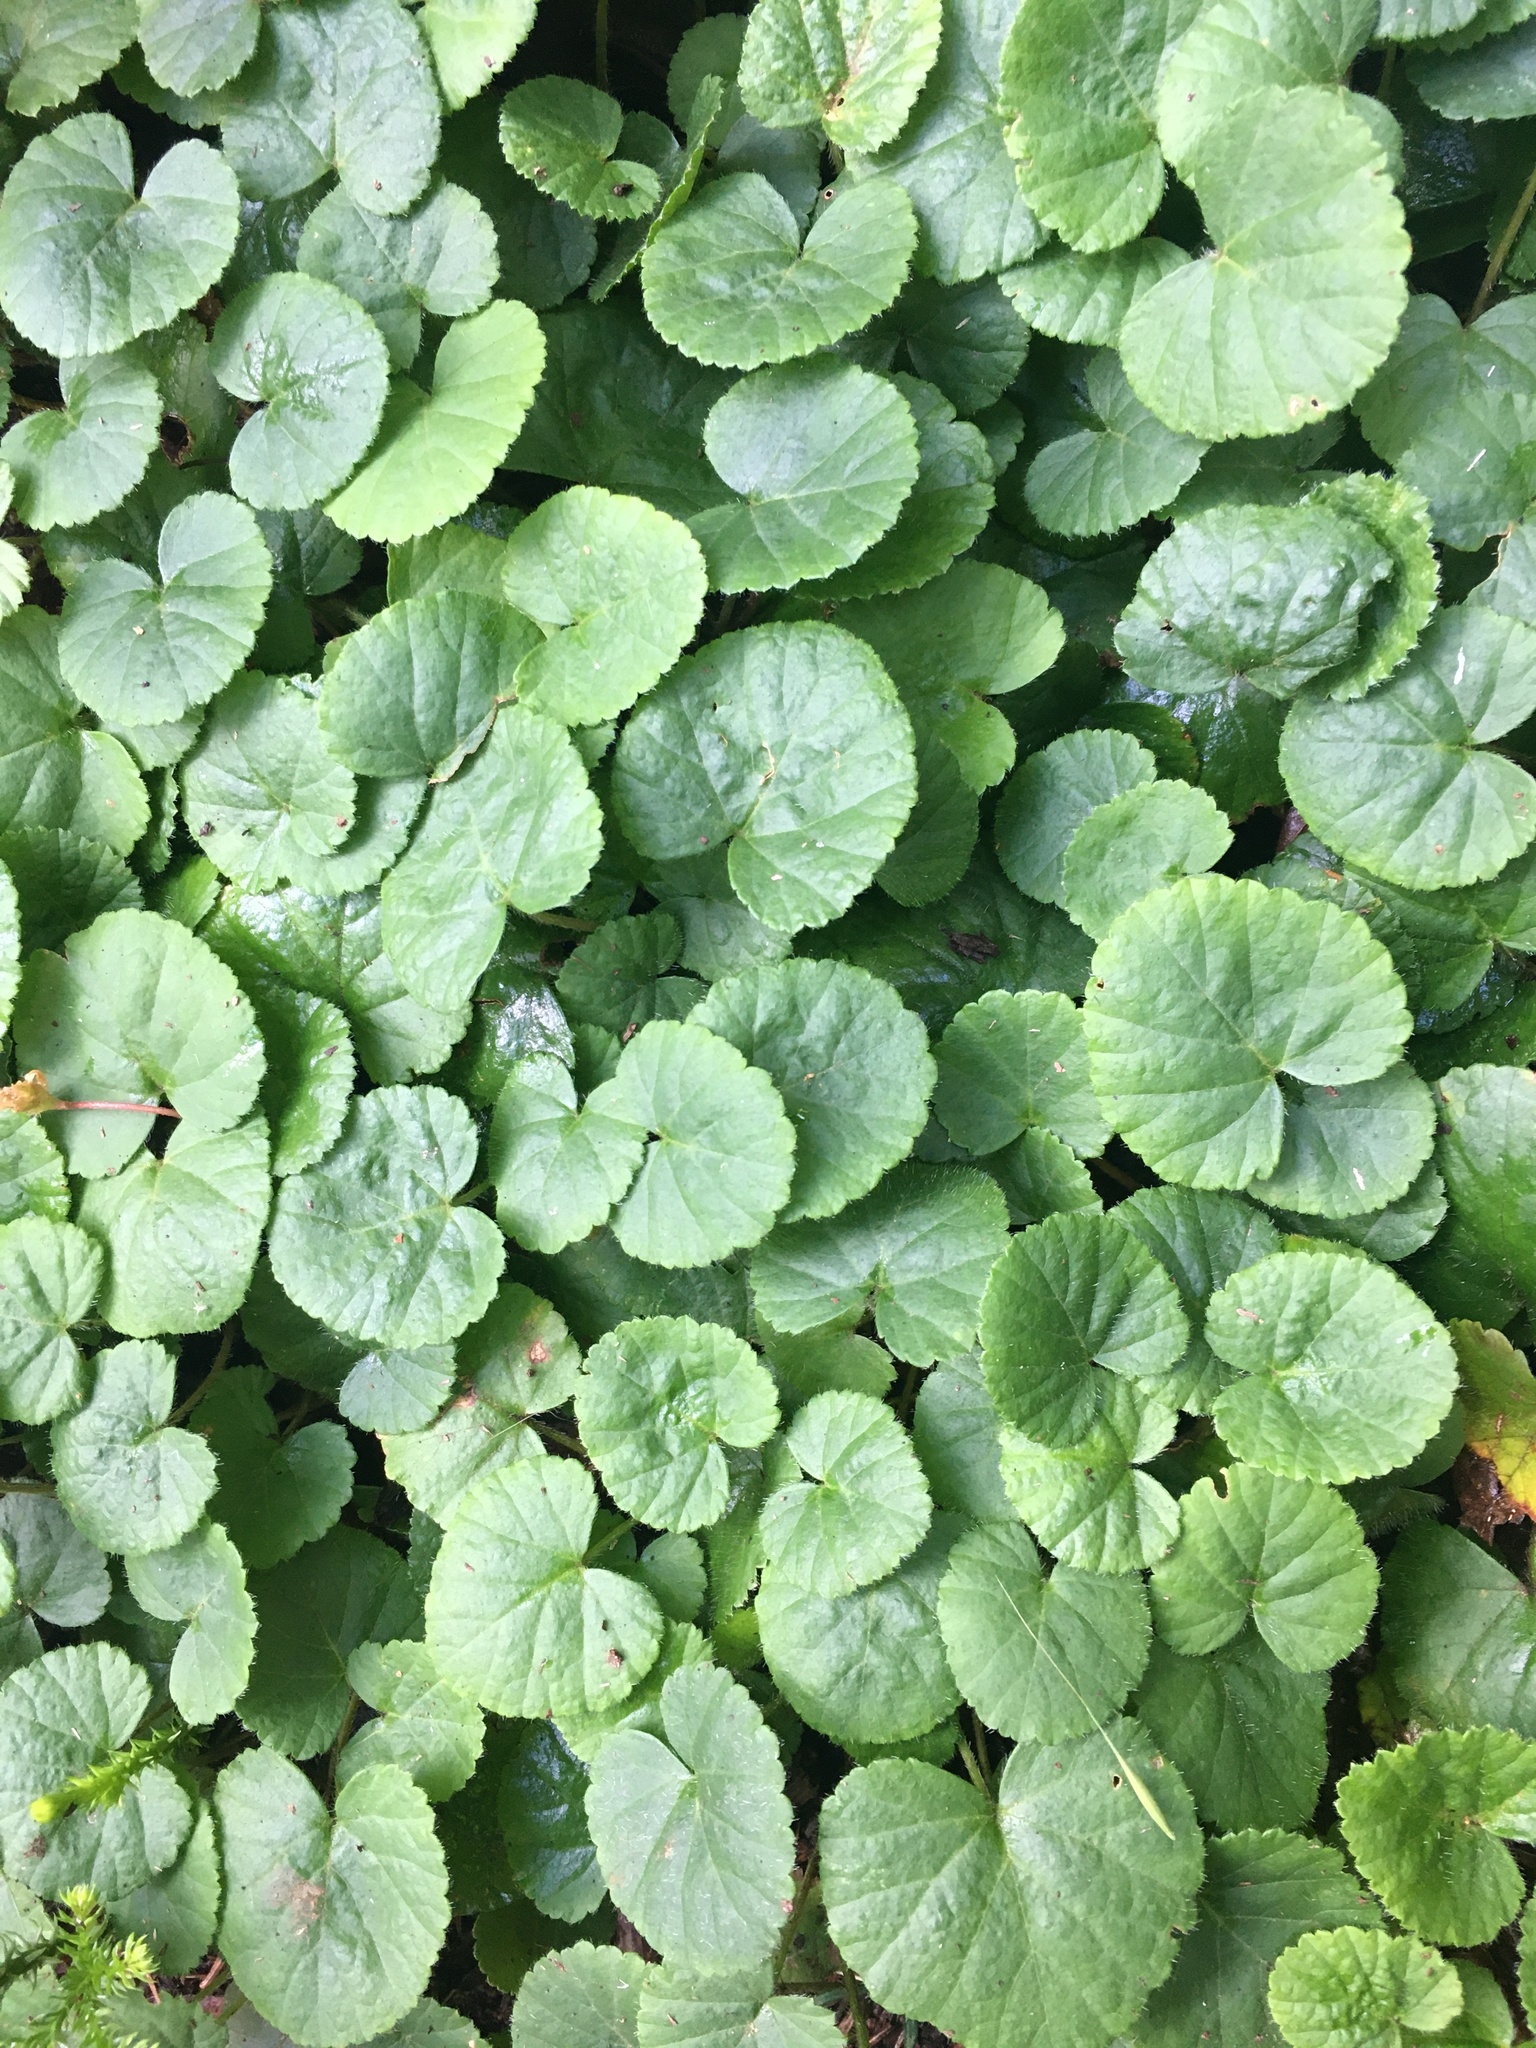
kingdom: Plantae
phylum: Tracheophyta
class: Magnoliopsida
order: Rosales
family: Rosaceae
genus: Dalibarda
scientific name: Dalibarda repens
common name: Dewdrop
